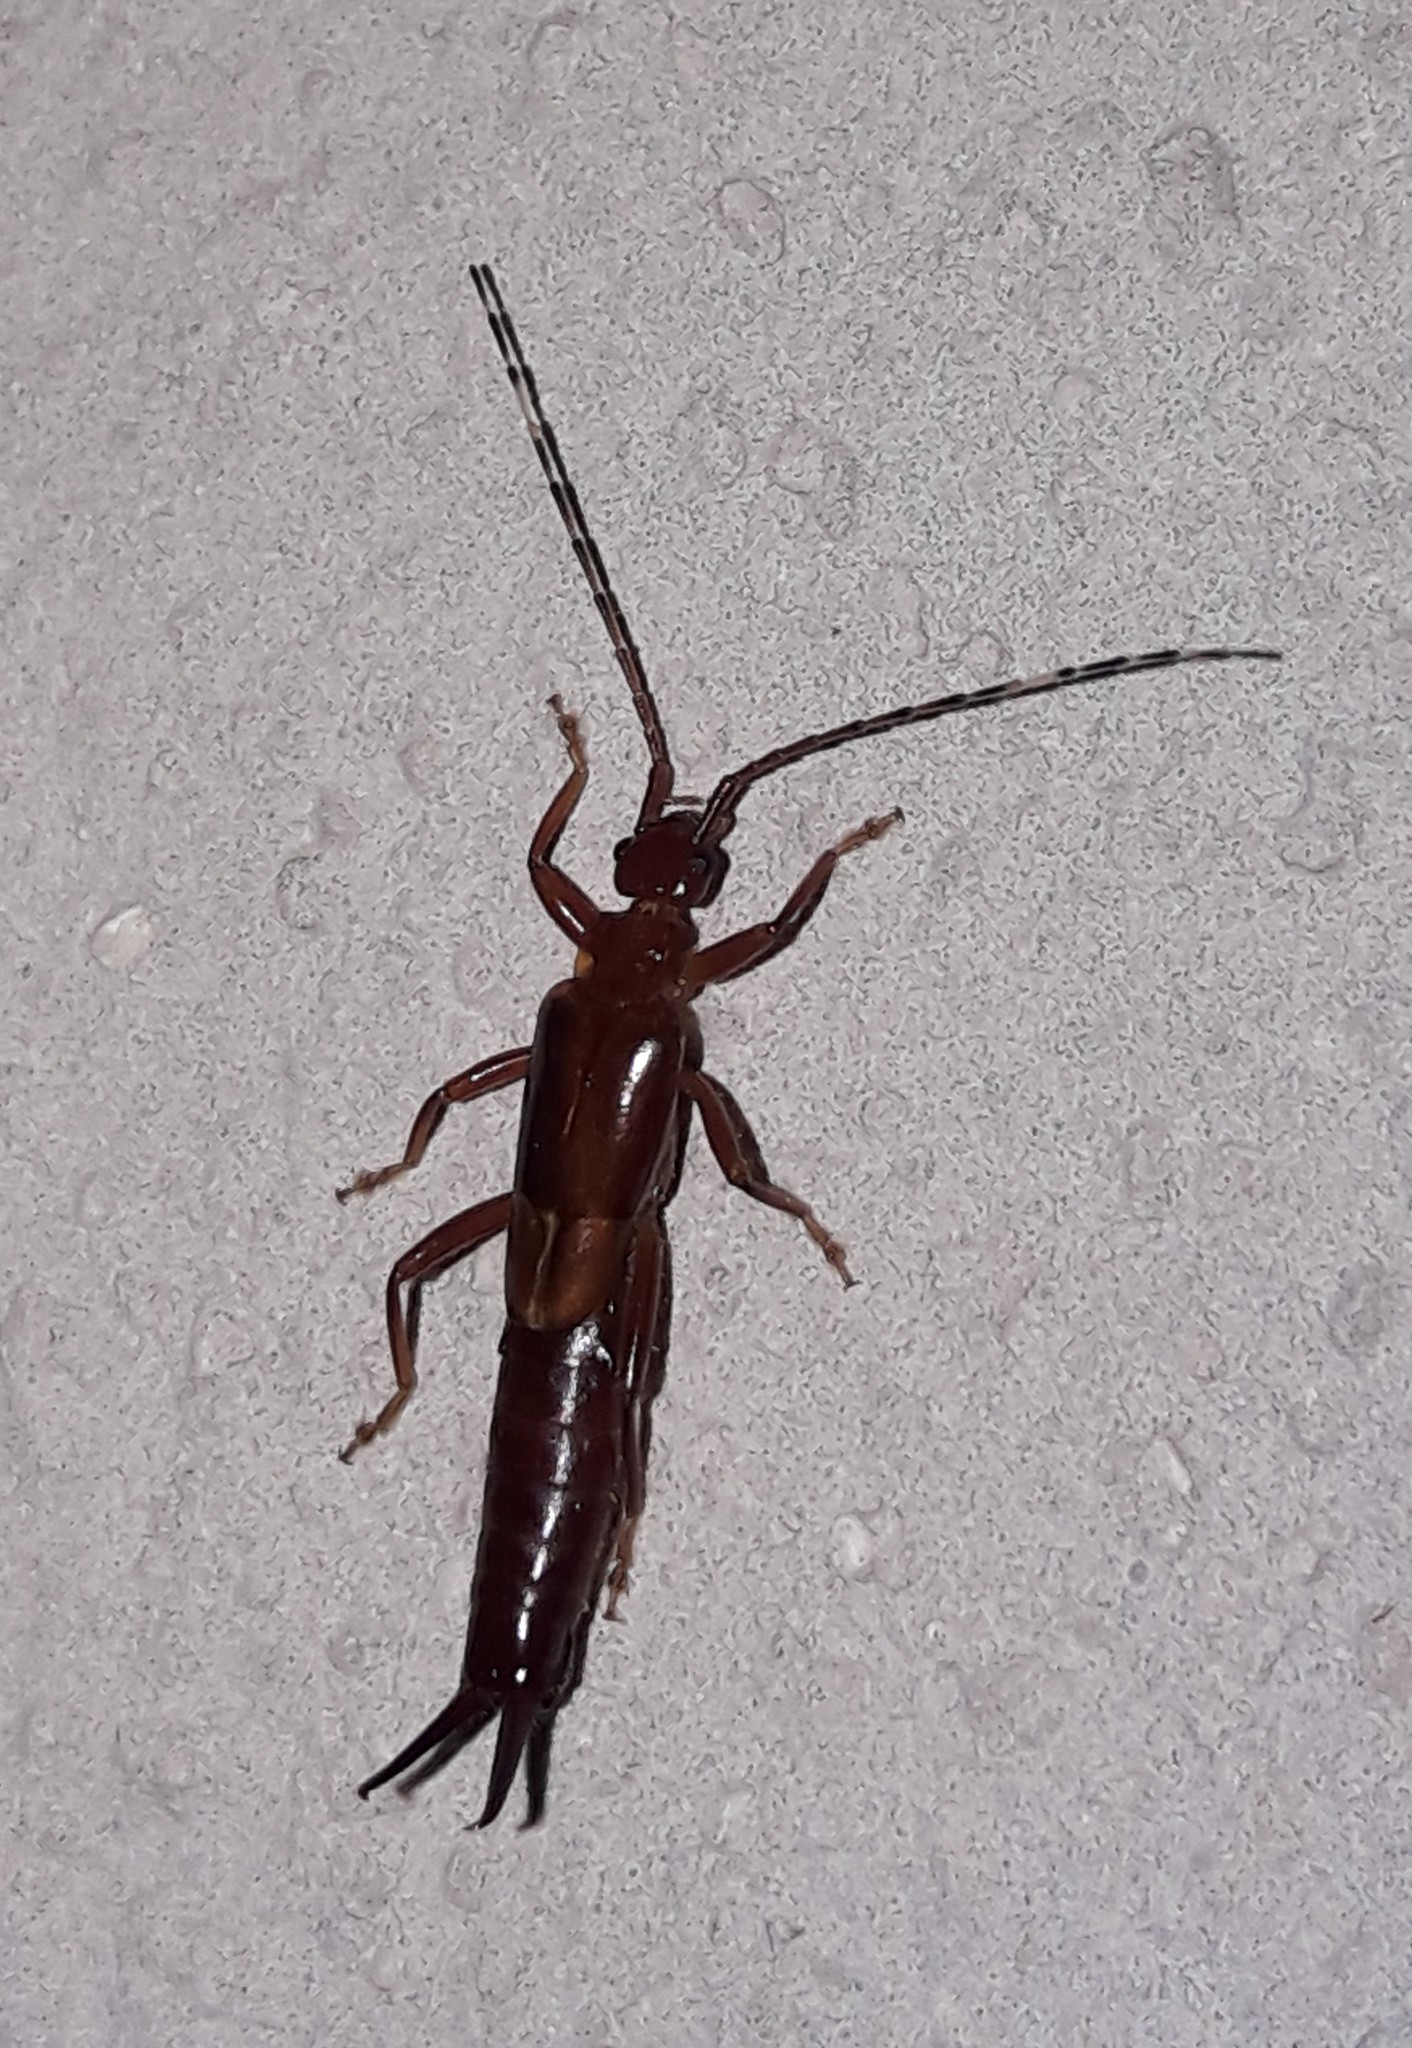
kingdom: Animalia
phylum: Arthropoda
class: Insecta
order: Dermaptera
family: Forficulidae
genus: Sarcinatrix
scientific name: Sarcinatrix anomalia
